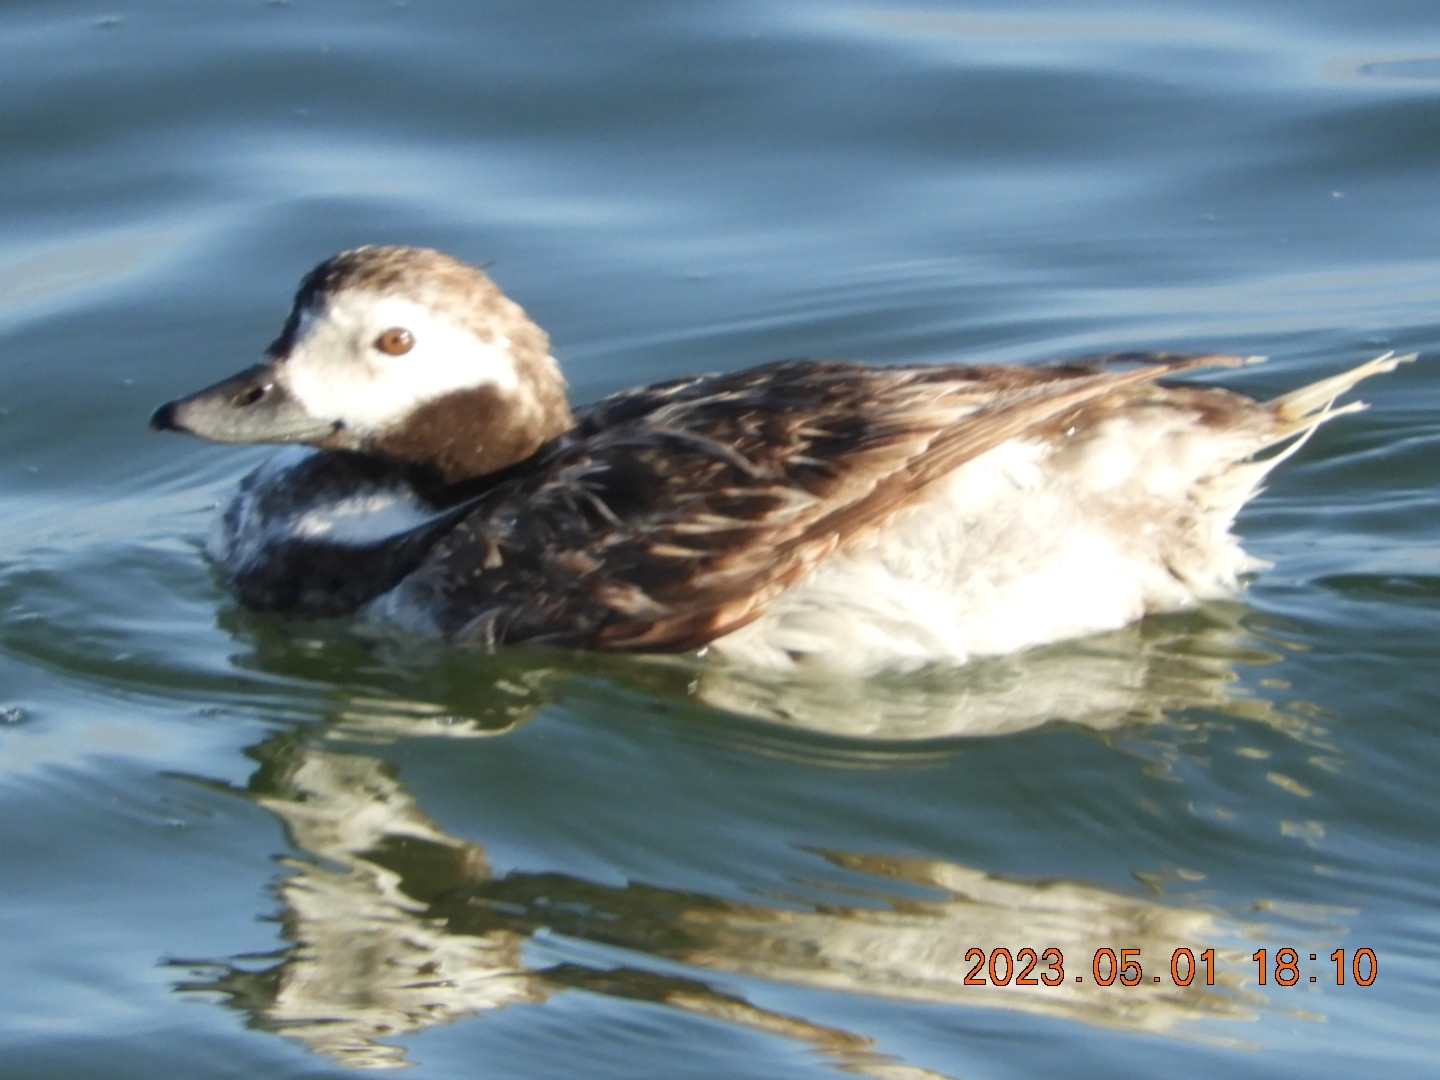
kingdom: Animalia
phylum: Chordata
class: Aves
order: Anseriformes
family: Anatidae
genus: Clangula
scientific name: Clangula hyemalis
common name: Long-tailed duck
